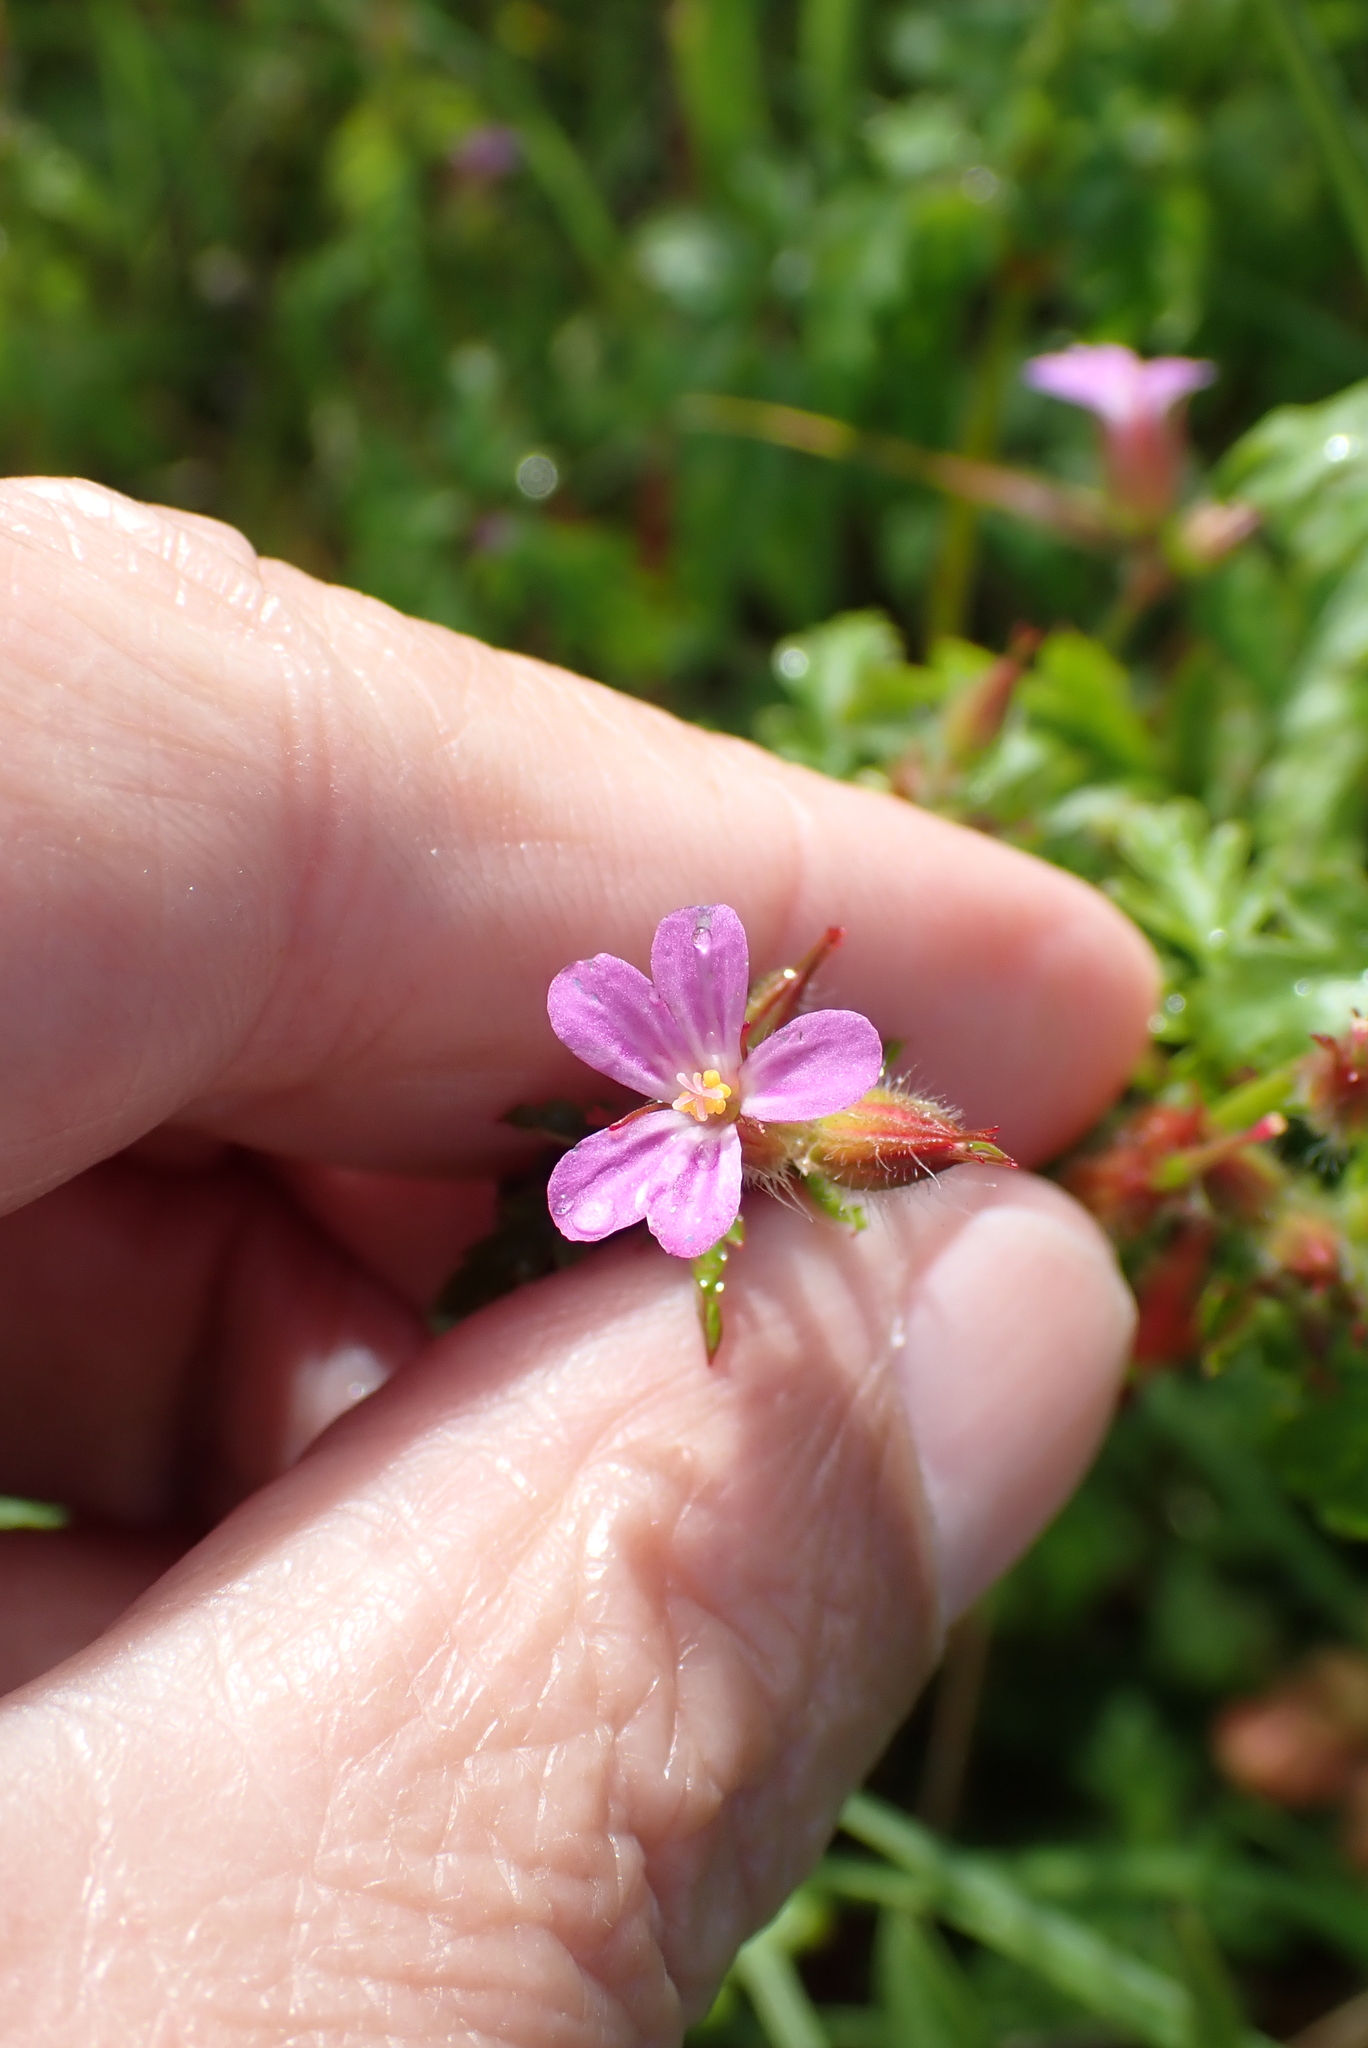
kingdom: Plantae
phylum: Tracheophyta
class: Magnoliopsida
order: Geraniales
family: Geraniaceae
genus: Geranium
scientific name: Geranium purpureum
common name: Little-robin
